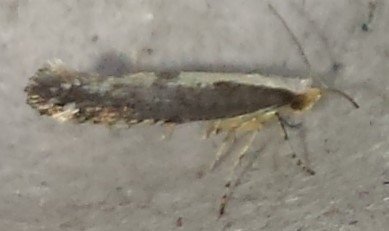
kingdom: Animalia
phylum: Arthropoda
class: Insecta
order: Lepidoptera
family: Argyresthiidae
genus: Argyresthia
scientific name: Argyresthia conjugella
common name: Apple fruit moth
